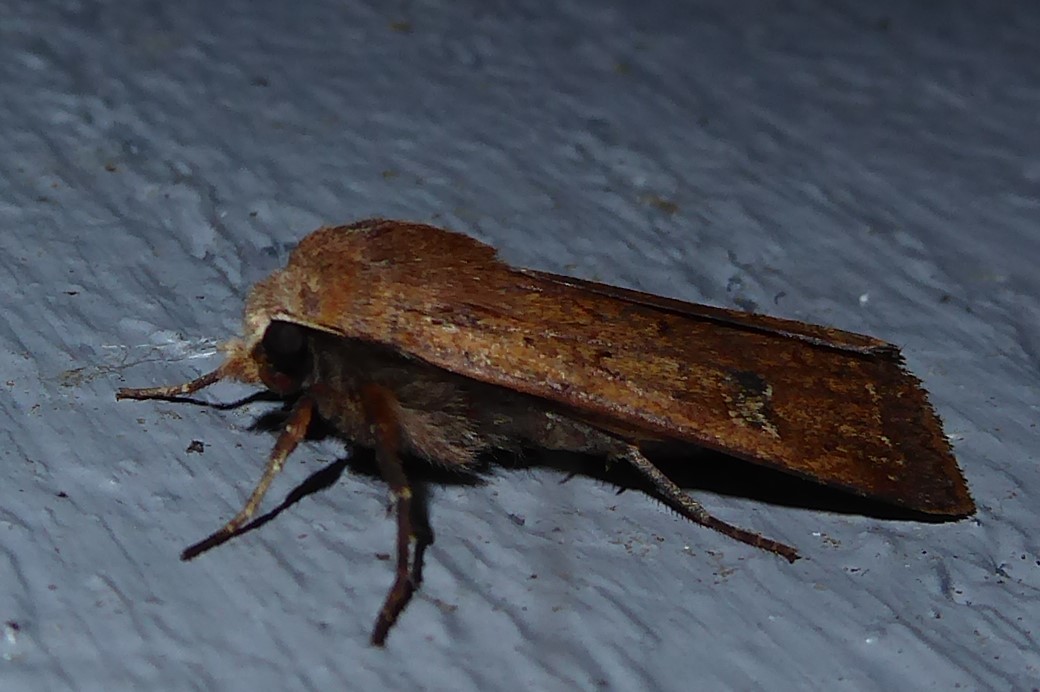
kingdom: Animalia
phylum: Arthropoda
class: Insecta
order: Lepidoptera
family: Noctuidae
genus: Diarsia
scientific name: Diarsia intermixta
